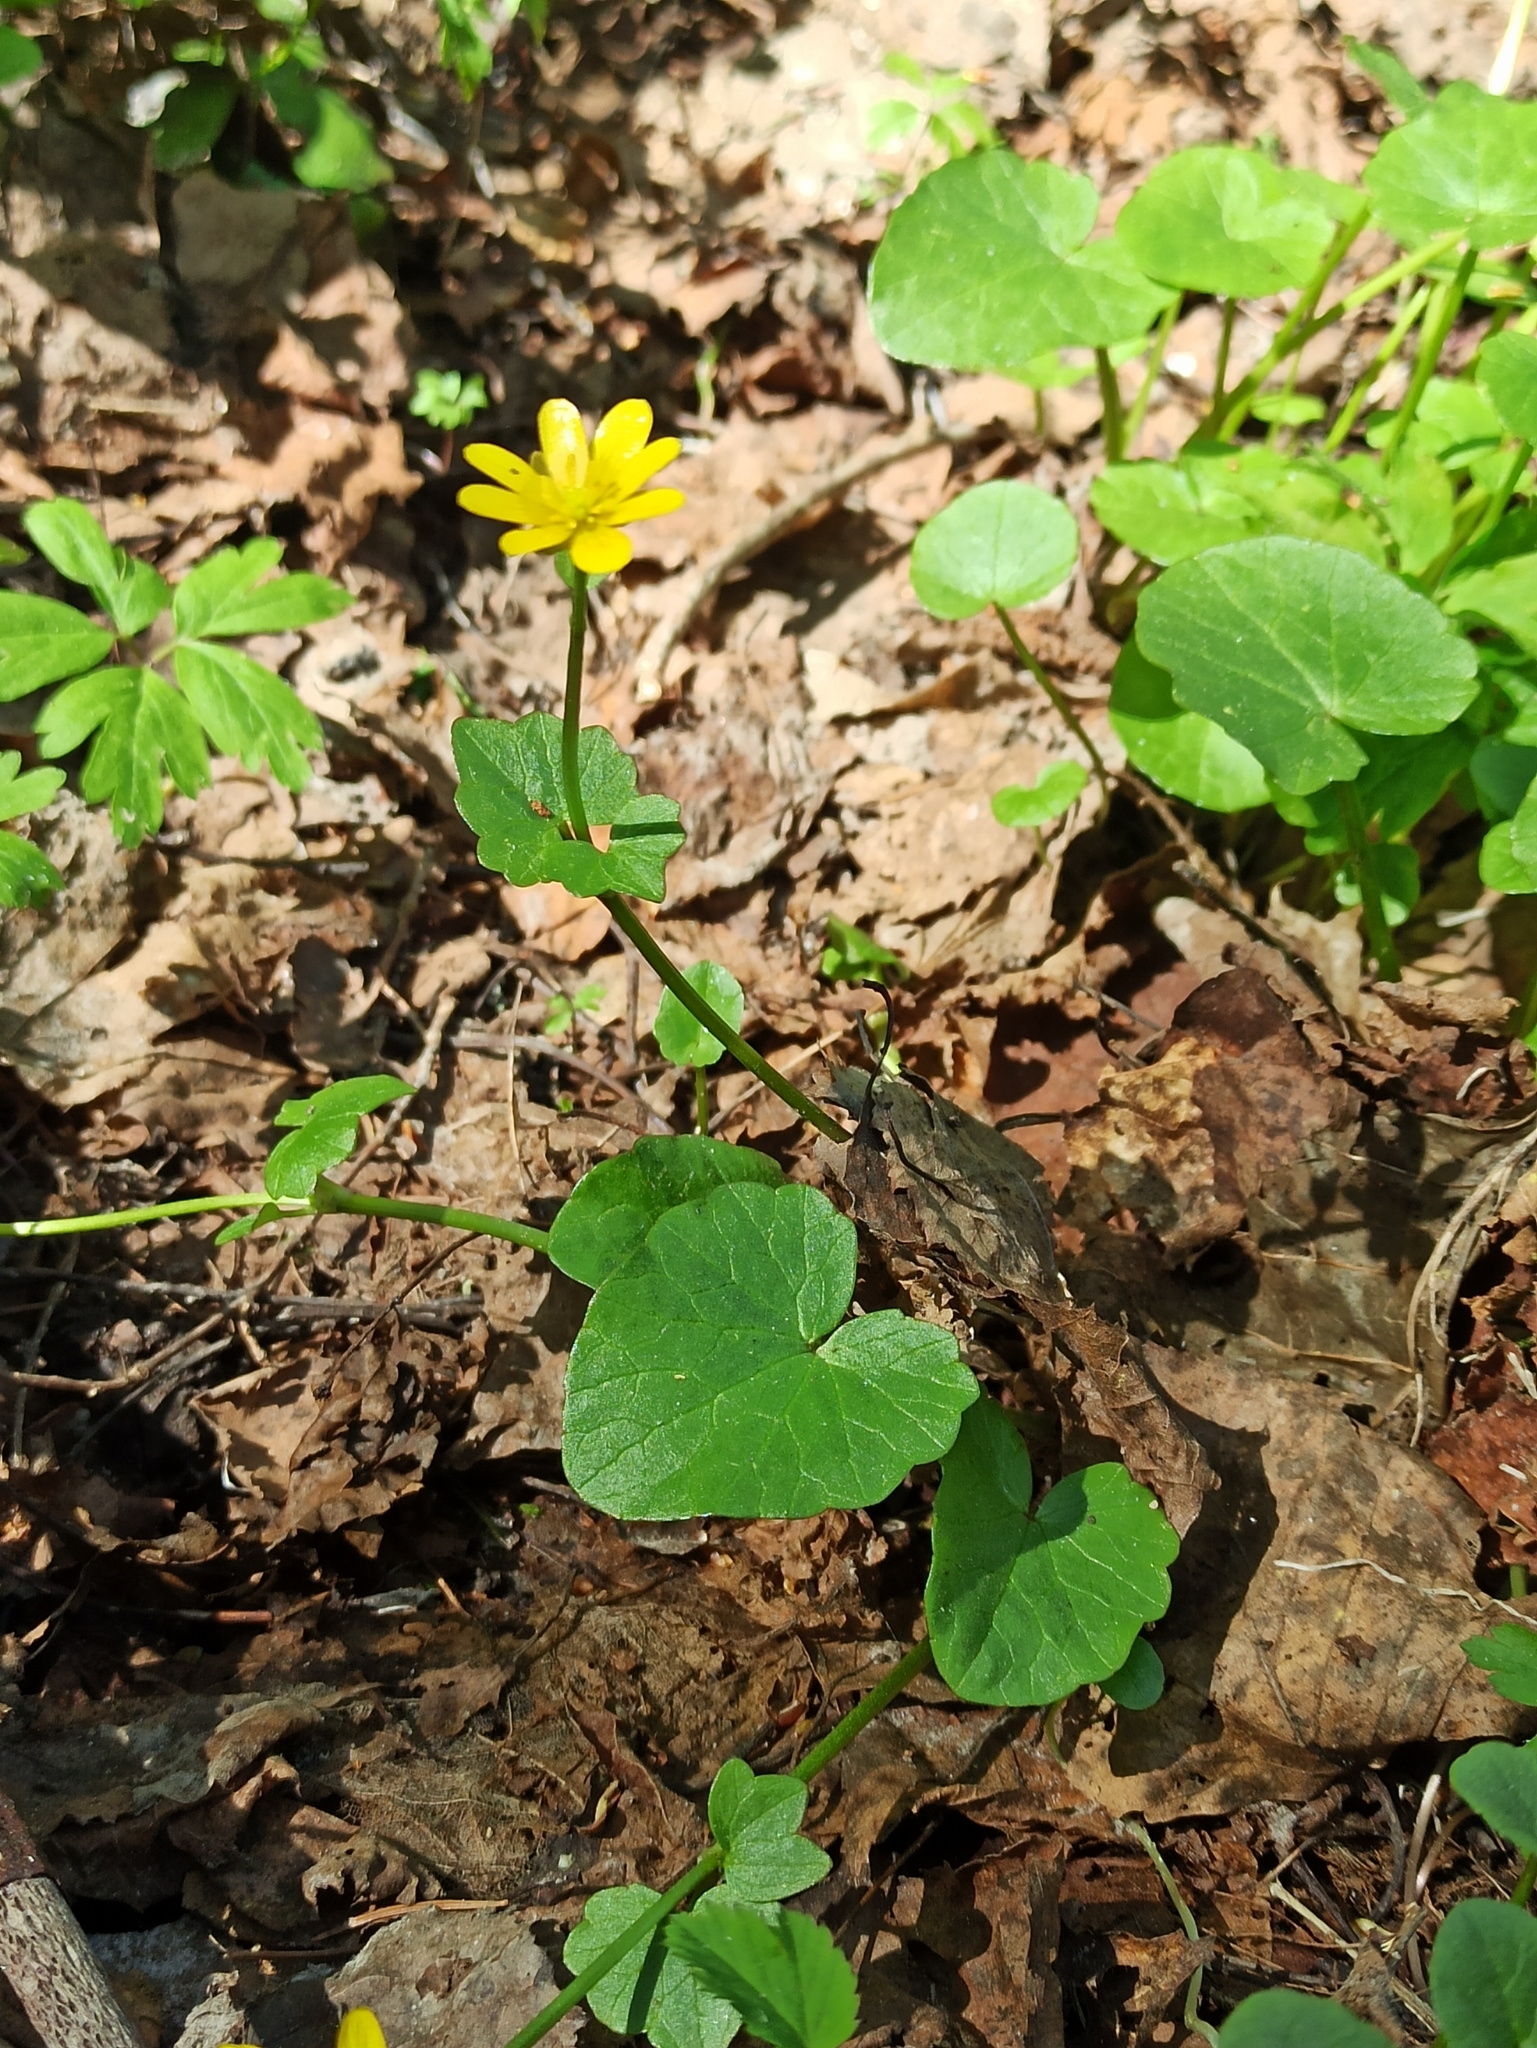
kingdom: Plantae
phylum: Tracheophyta
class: Magnoliopsida
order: Ranunculales
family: Ranunculaceae
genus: Ficaria
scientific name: Ficaria verna
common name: Lesser celandine
